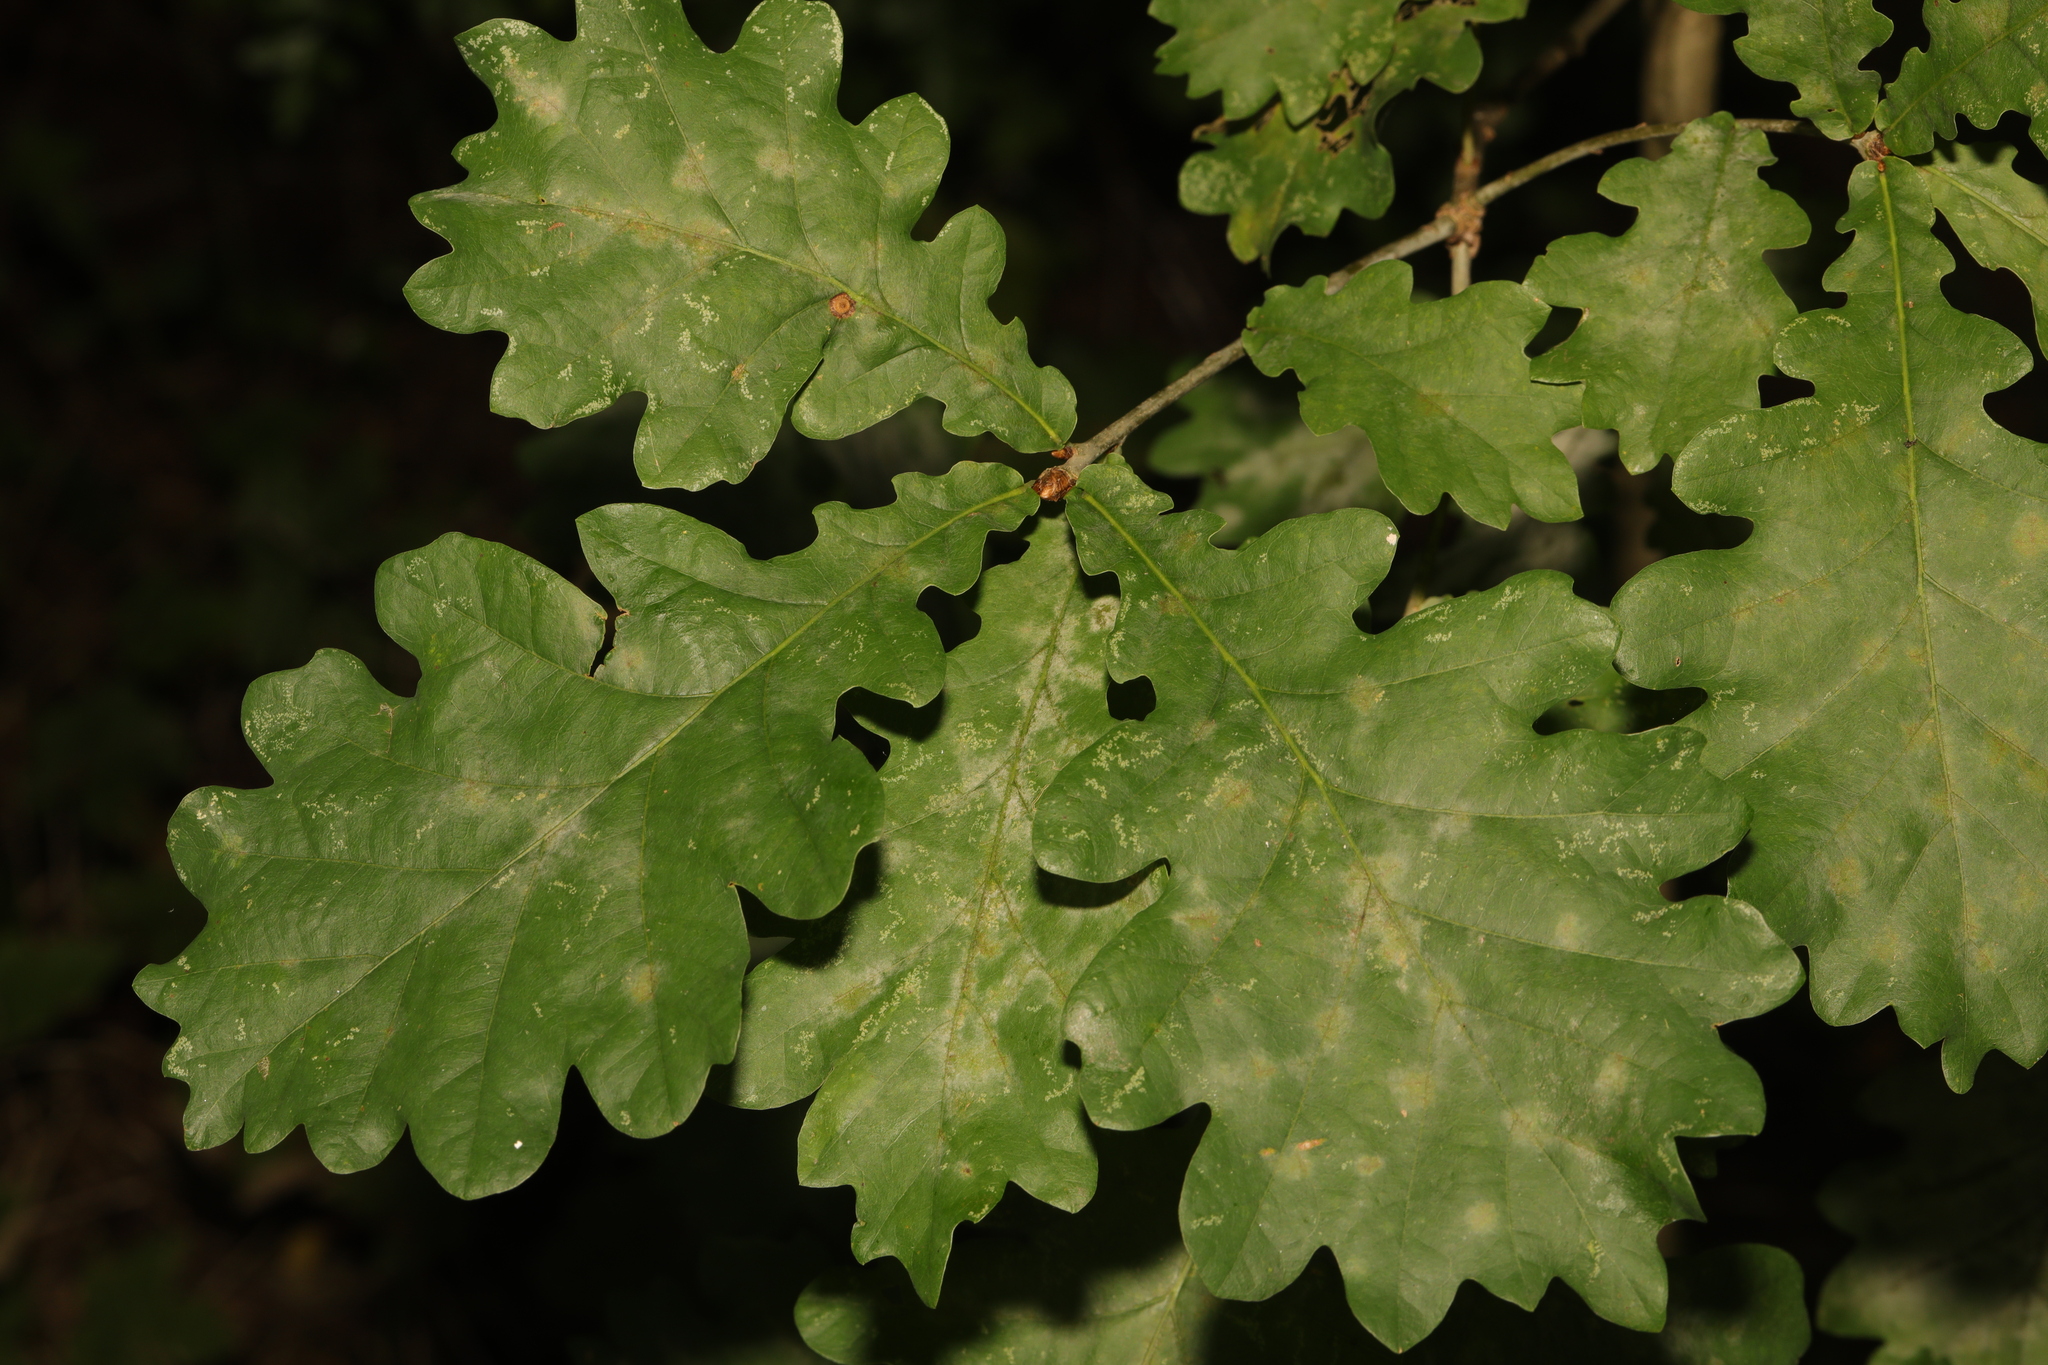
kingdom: Plantae
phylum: Tracheophyta
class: Magnoliopsida
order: Fagales
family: Fagaceae
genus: Quercus
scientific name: Quercus robur
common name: Pedunculate oak
